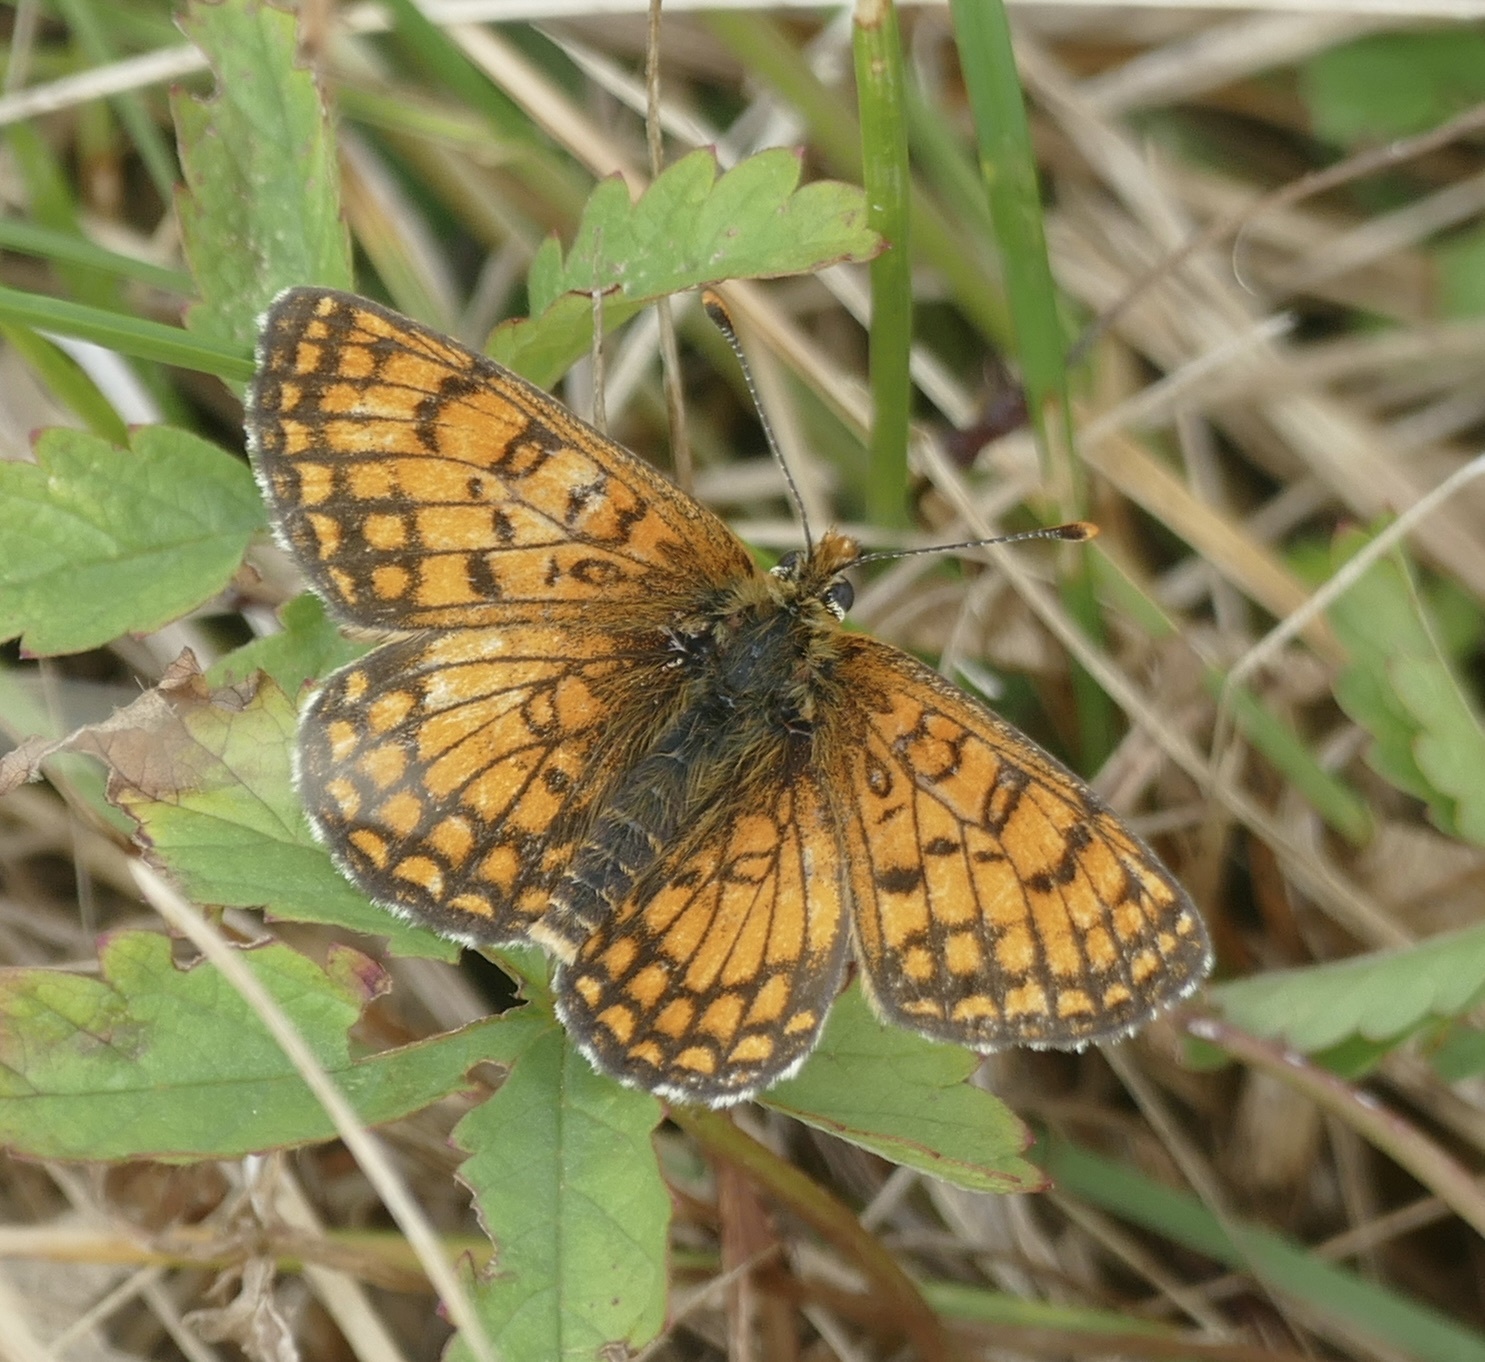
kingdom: Animalia
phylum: Arthropoda
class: Insecta
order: Lepidoptera
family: Nymphalidae
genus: Mellicta
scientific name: Mellicta parthenoides
